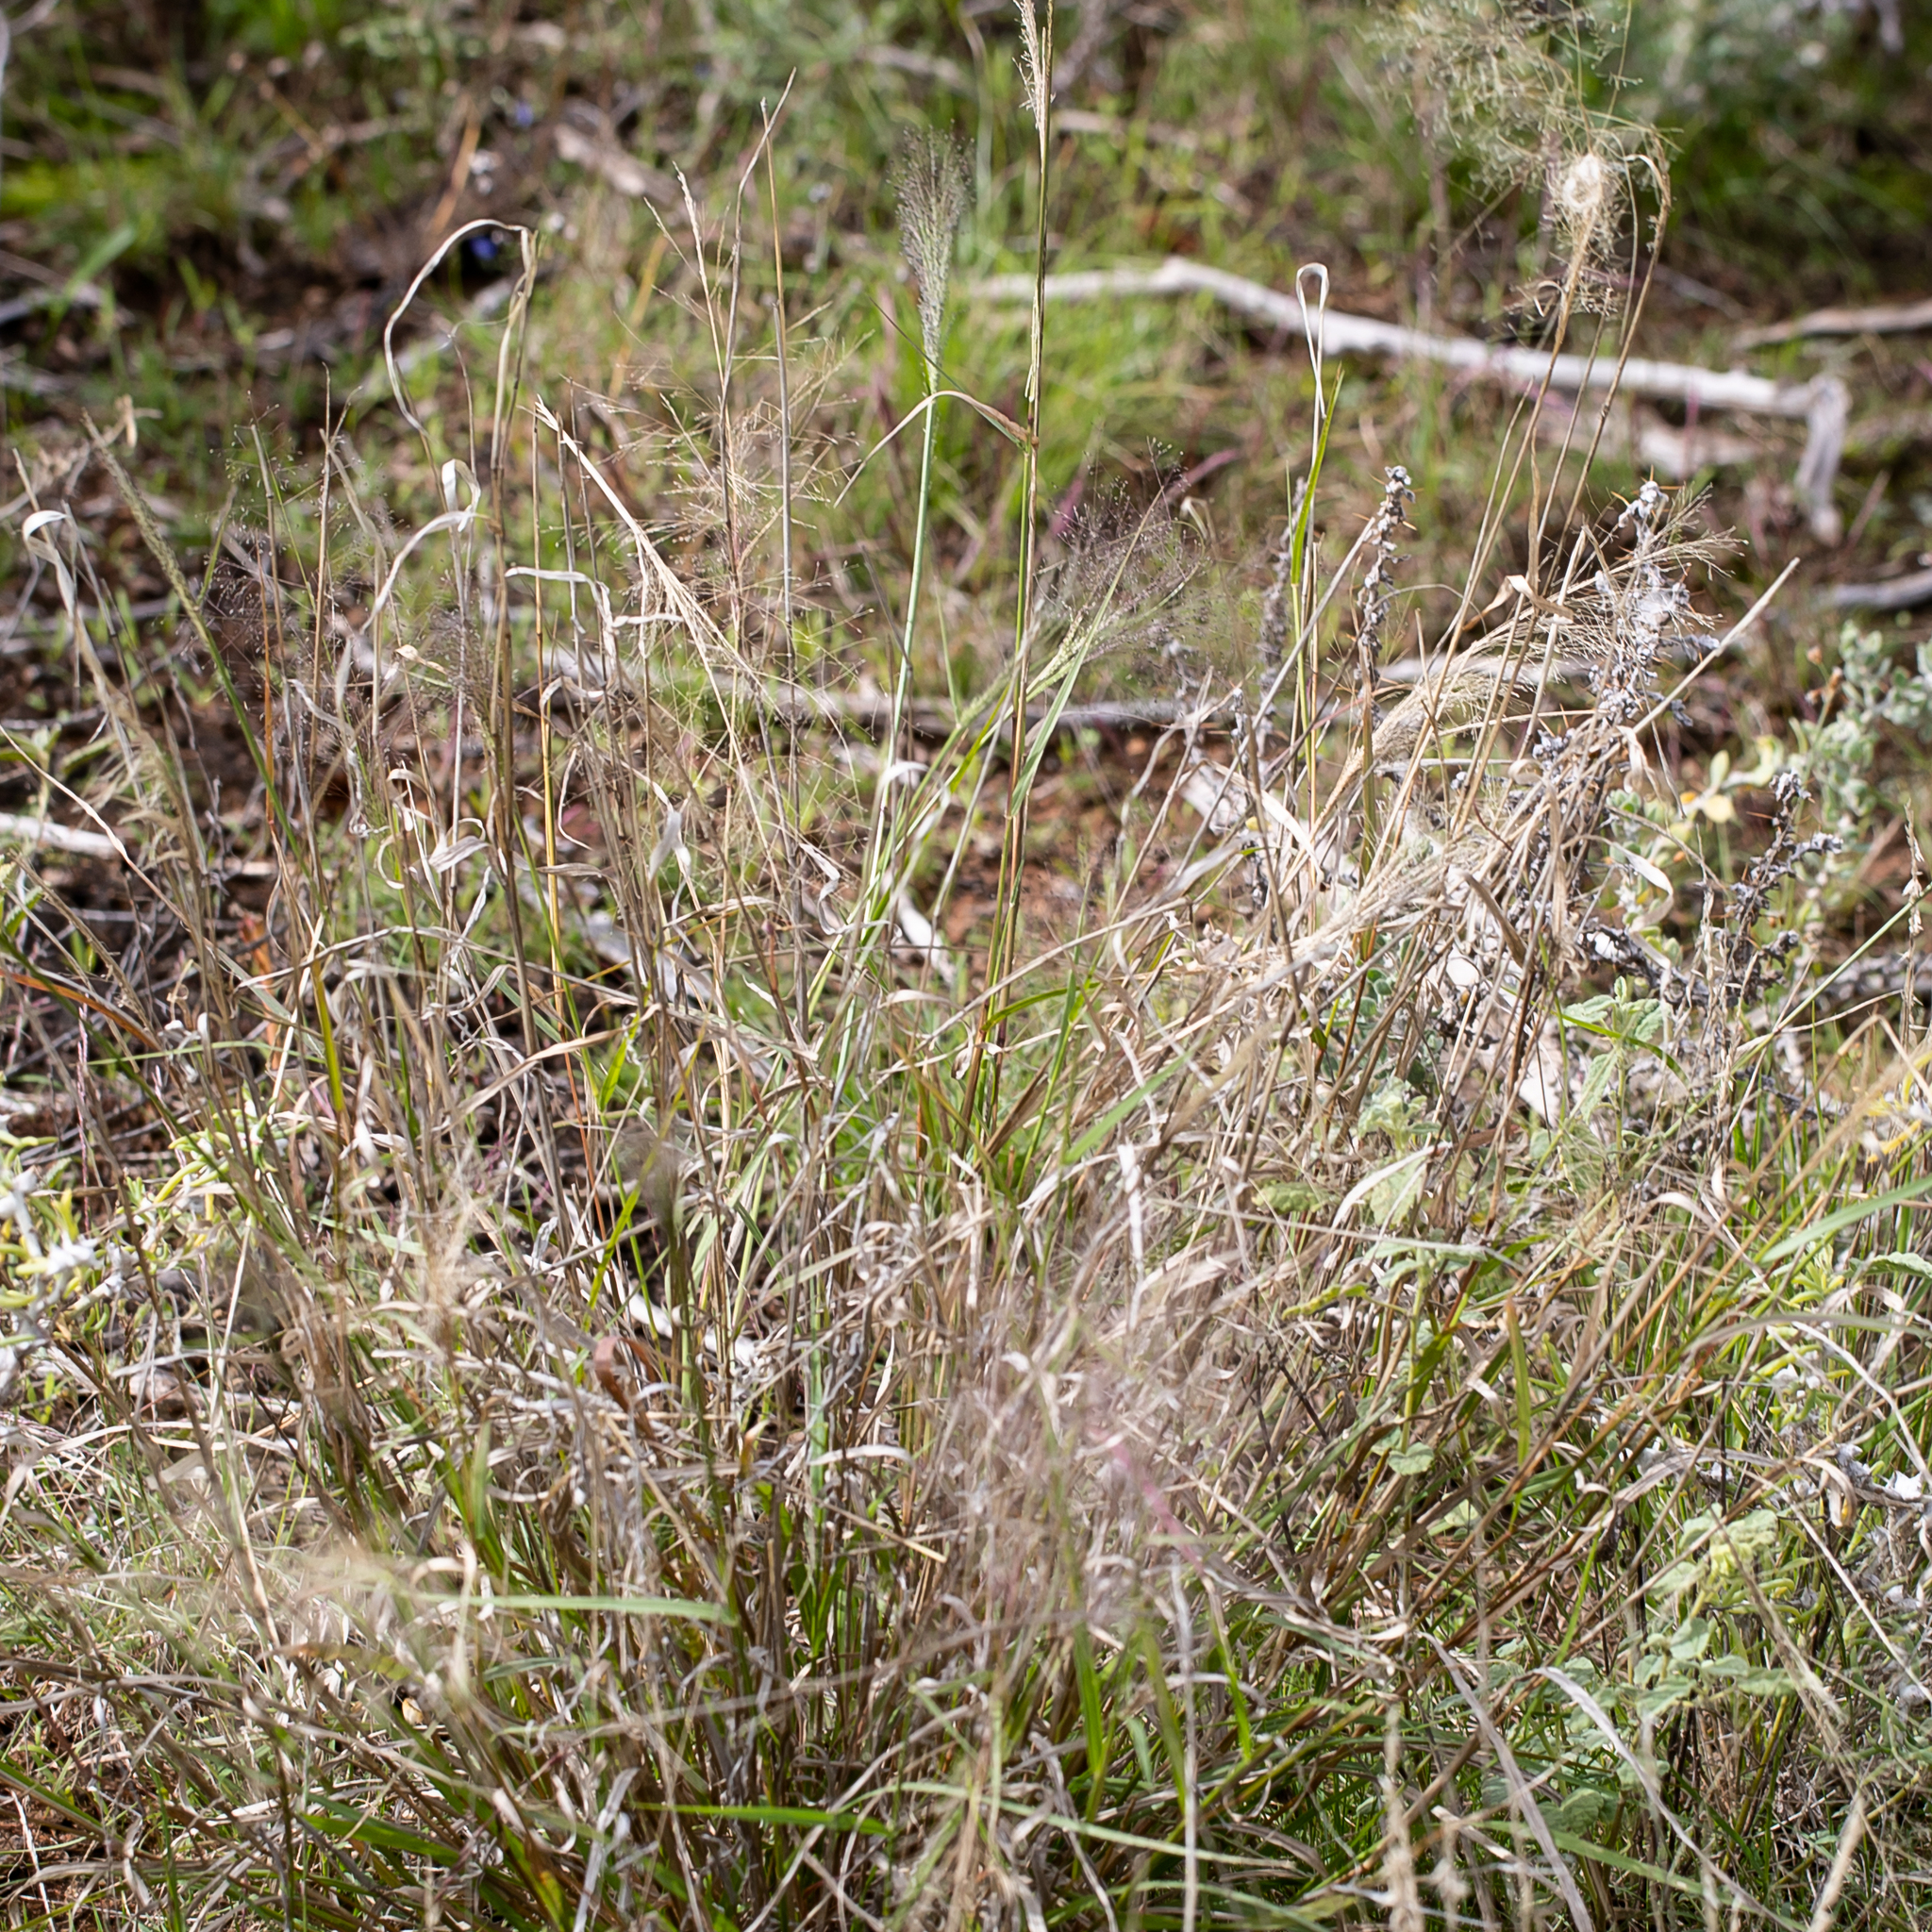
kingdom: Plantae
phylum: Tracheophyta
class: Liliopsida
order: Poales
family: Poaceae
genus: Sporobolus
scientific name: Sporobolus caroli
